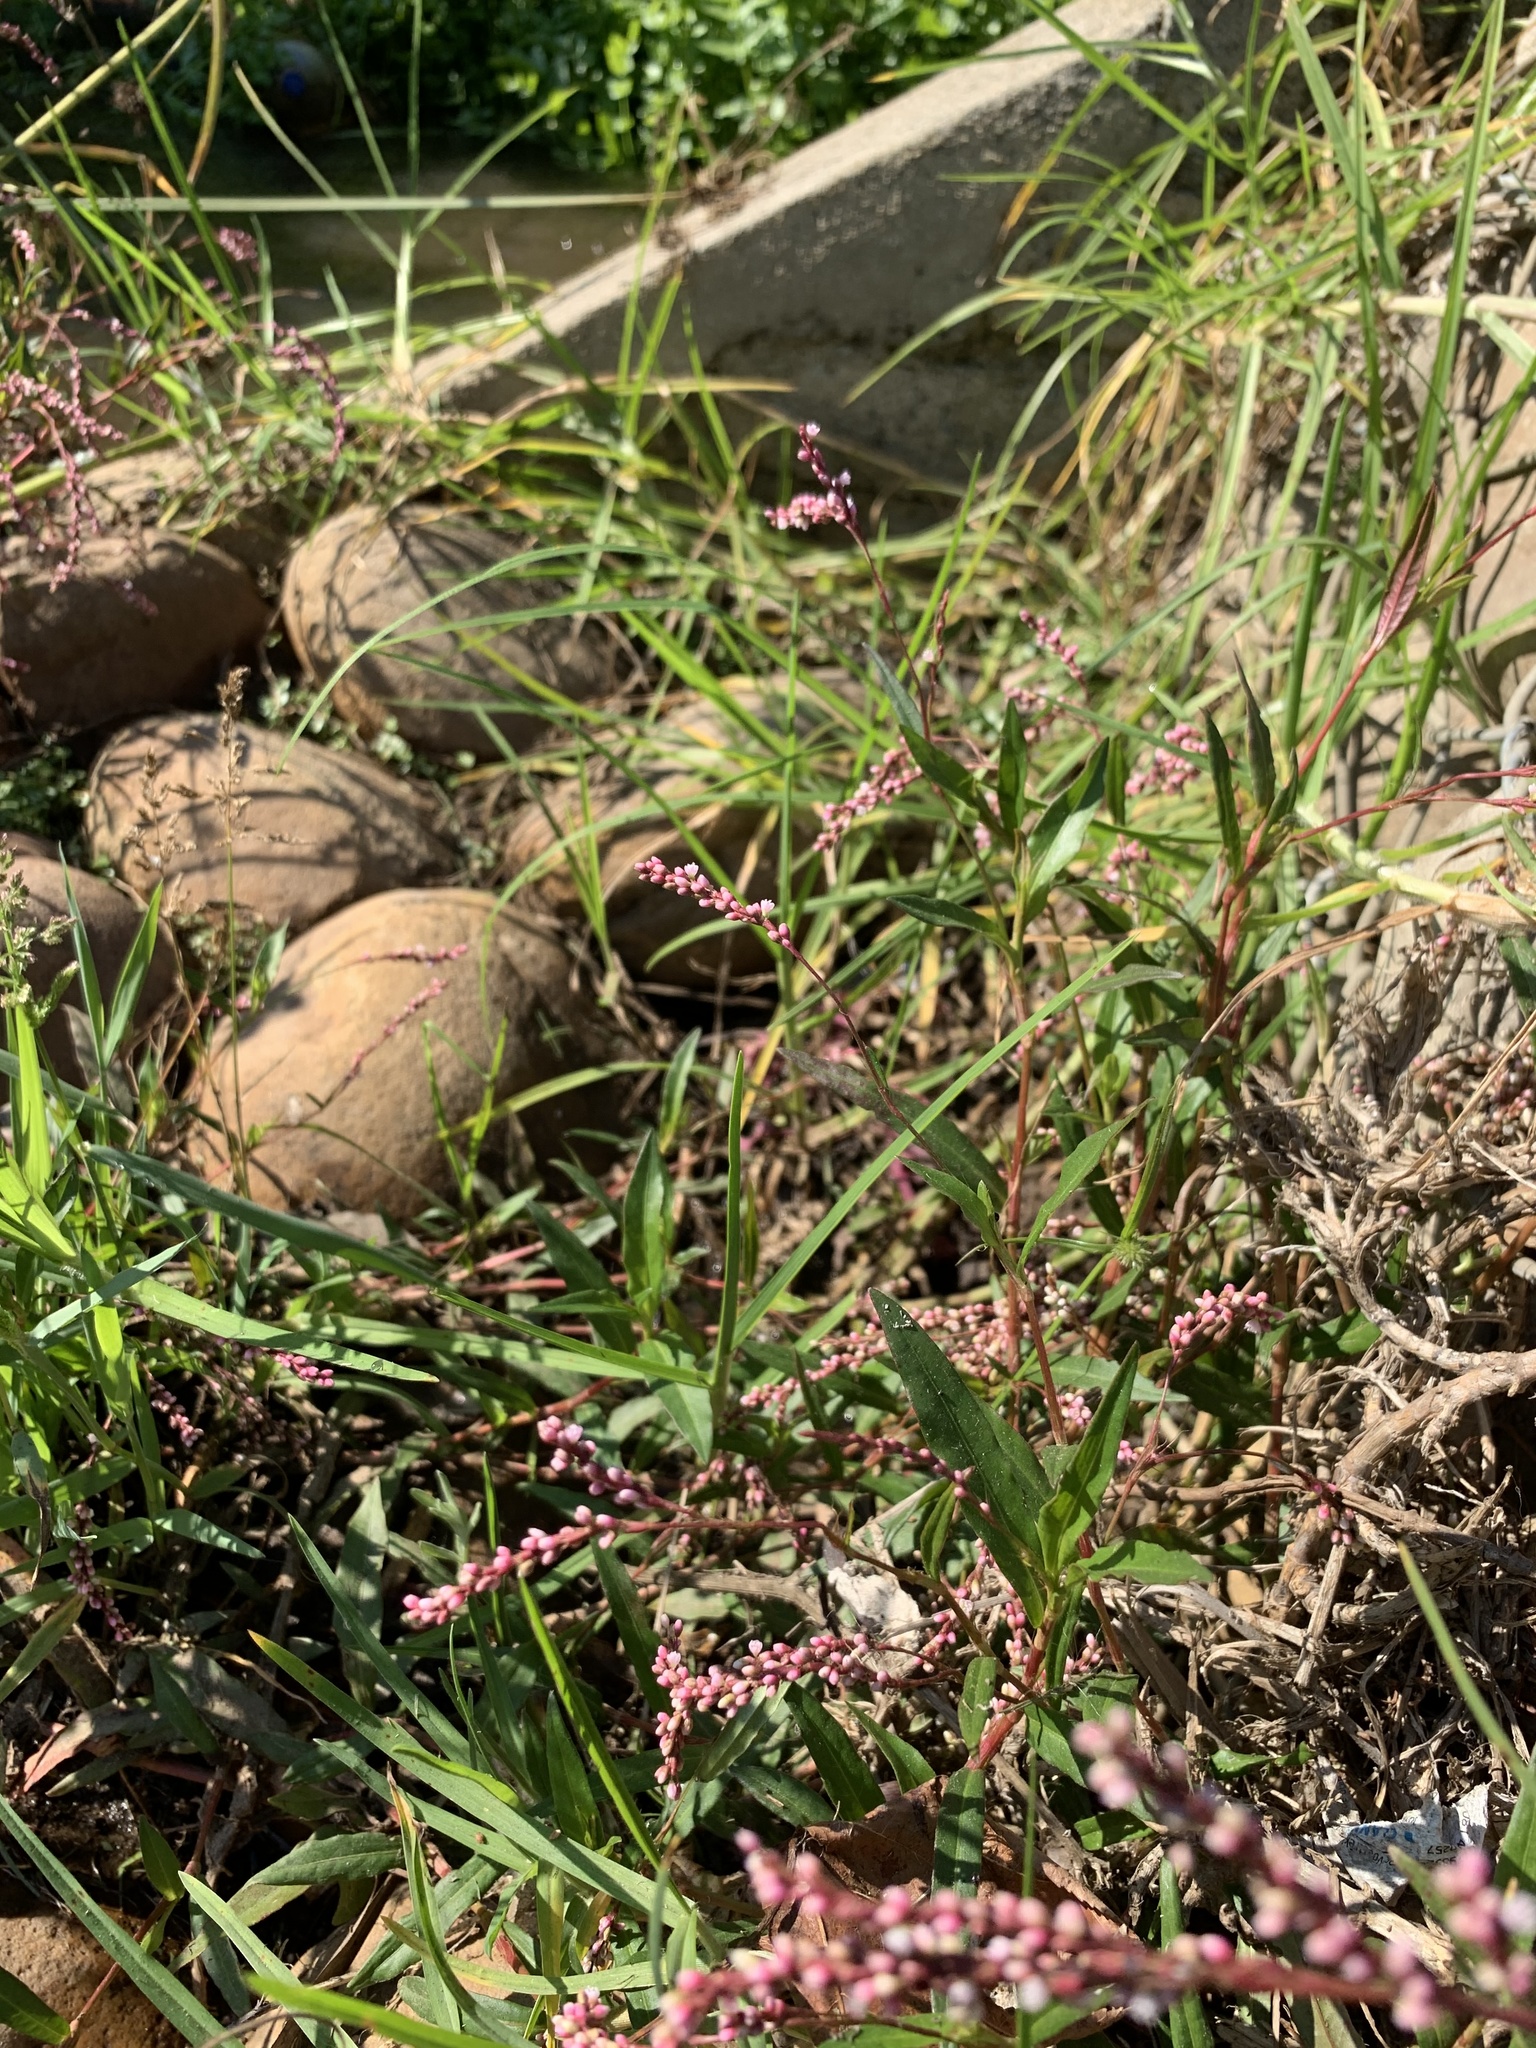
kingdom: Plantae
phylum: Tracheophyta
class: Magnoliopsida
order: Caryophyllales
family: Polygonaceae
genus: Persicaria
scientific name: Persicaria decipiens
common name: Willow-weed
